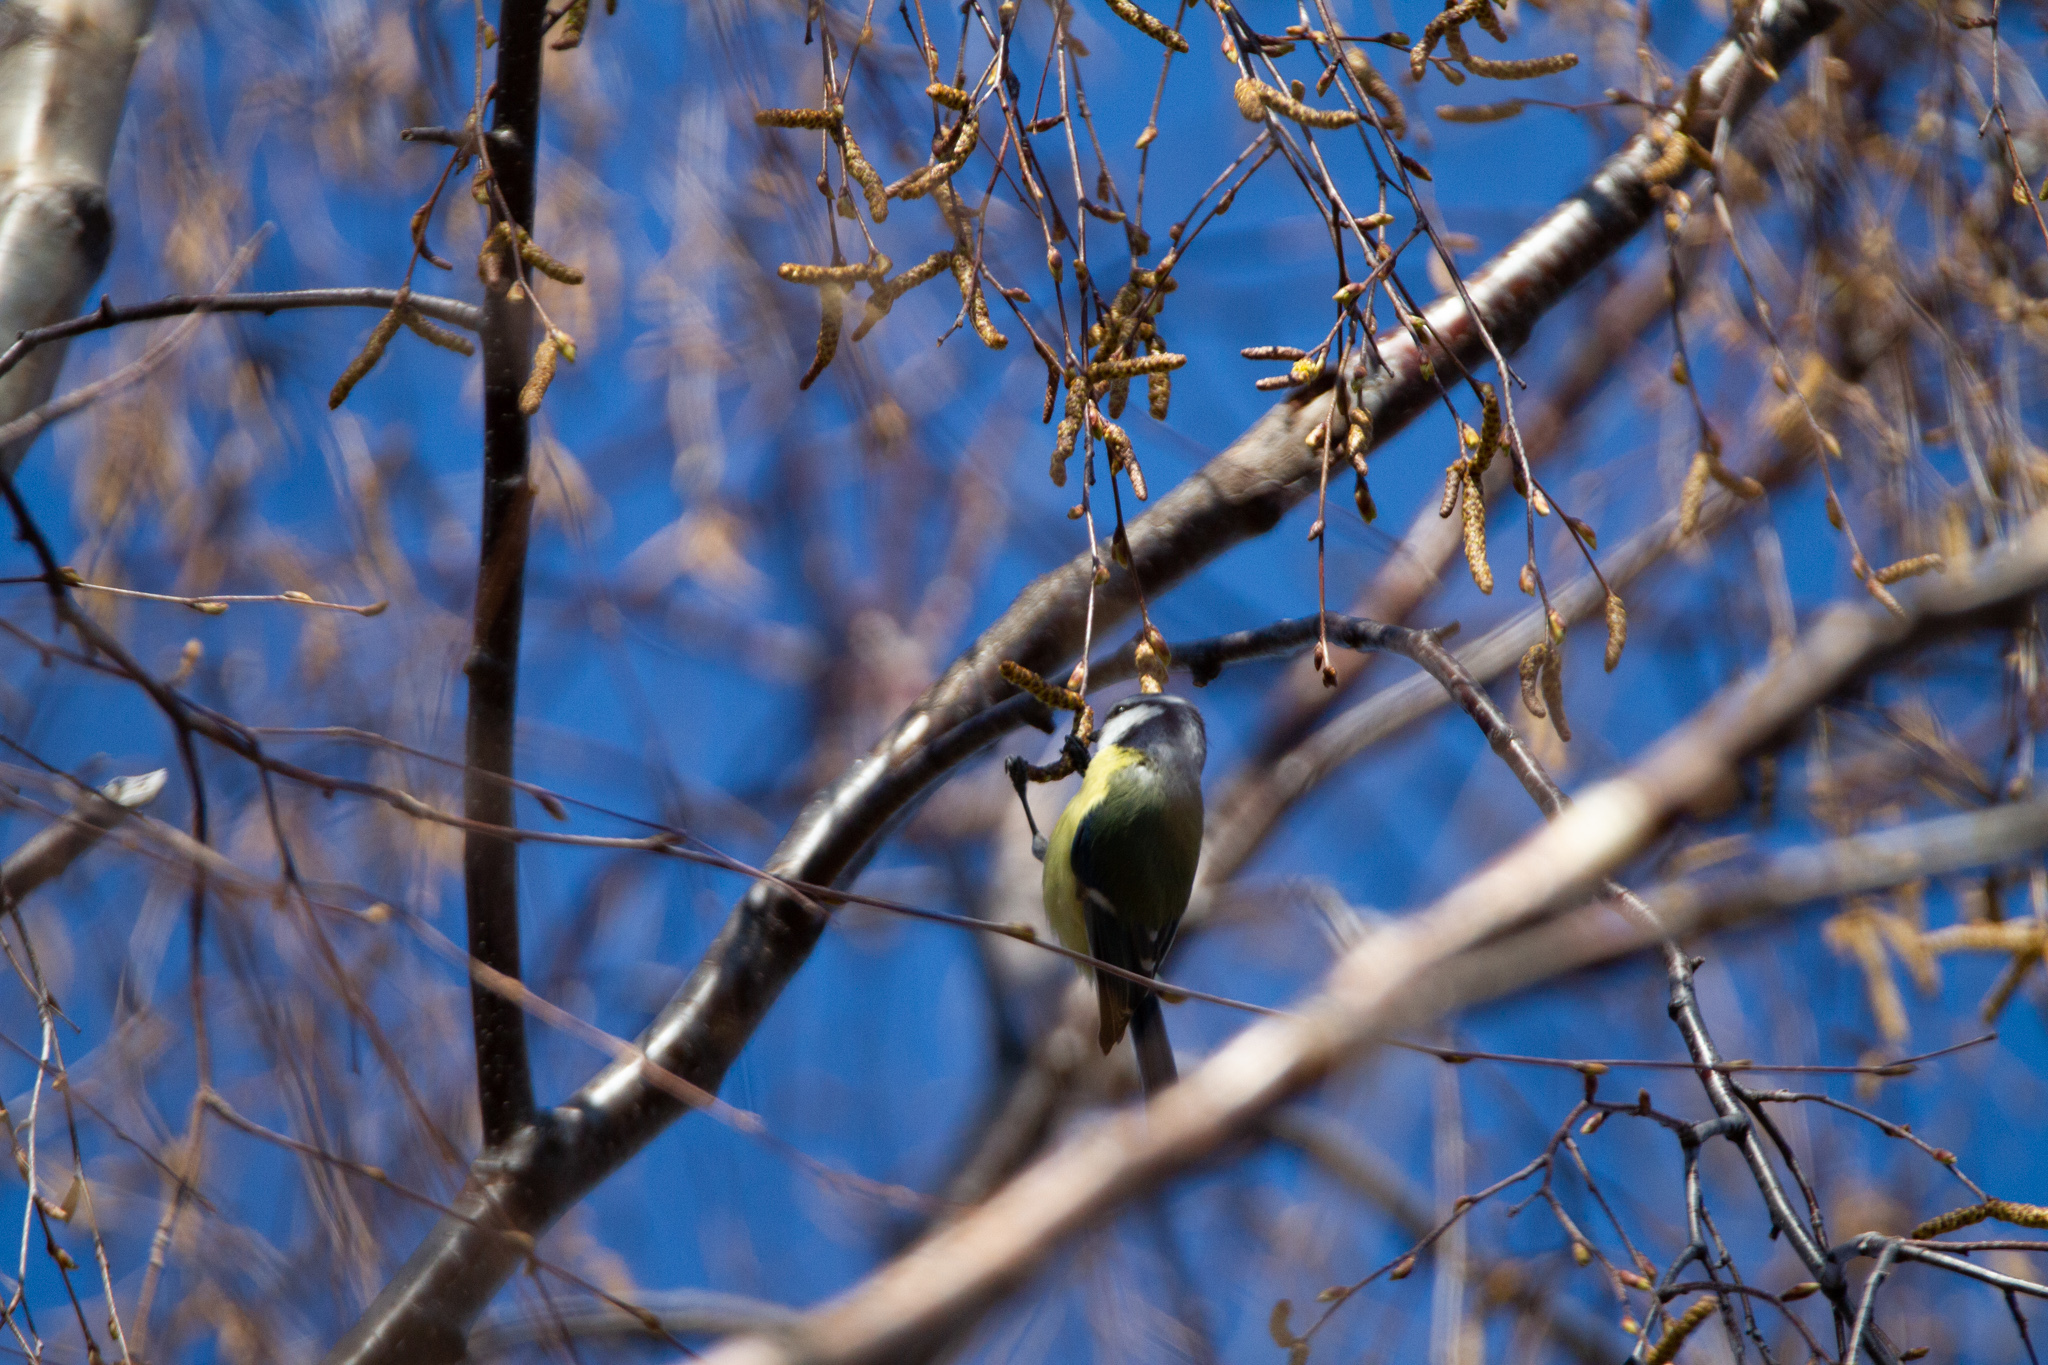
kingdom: Animalia
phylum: Chordata
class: Aves
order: Passeriformes
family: Paridae
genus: Cyanistes
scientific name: Cyanistes caeruleus
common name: Eurasian blue tit
